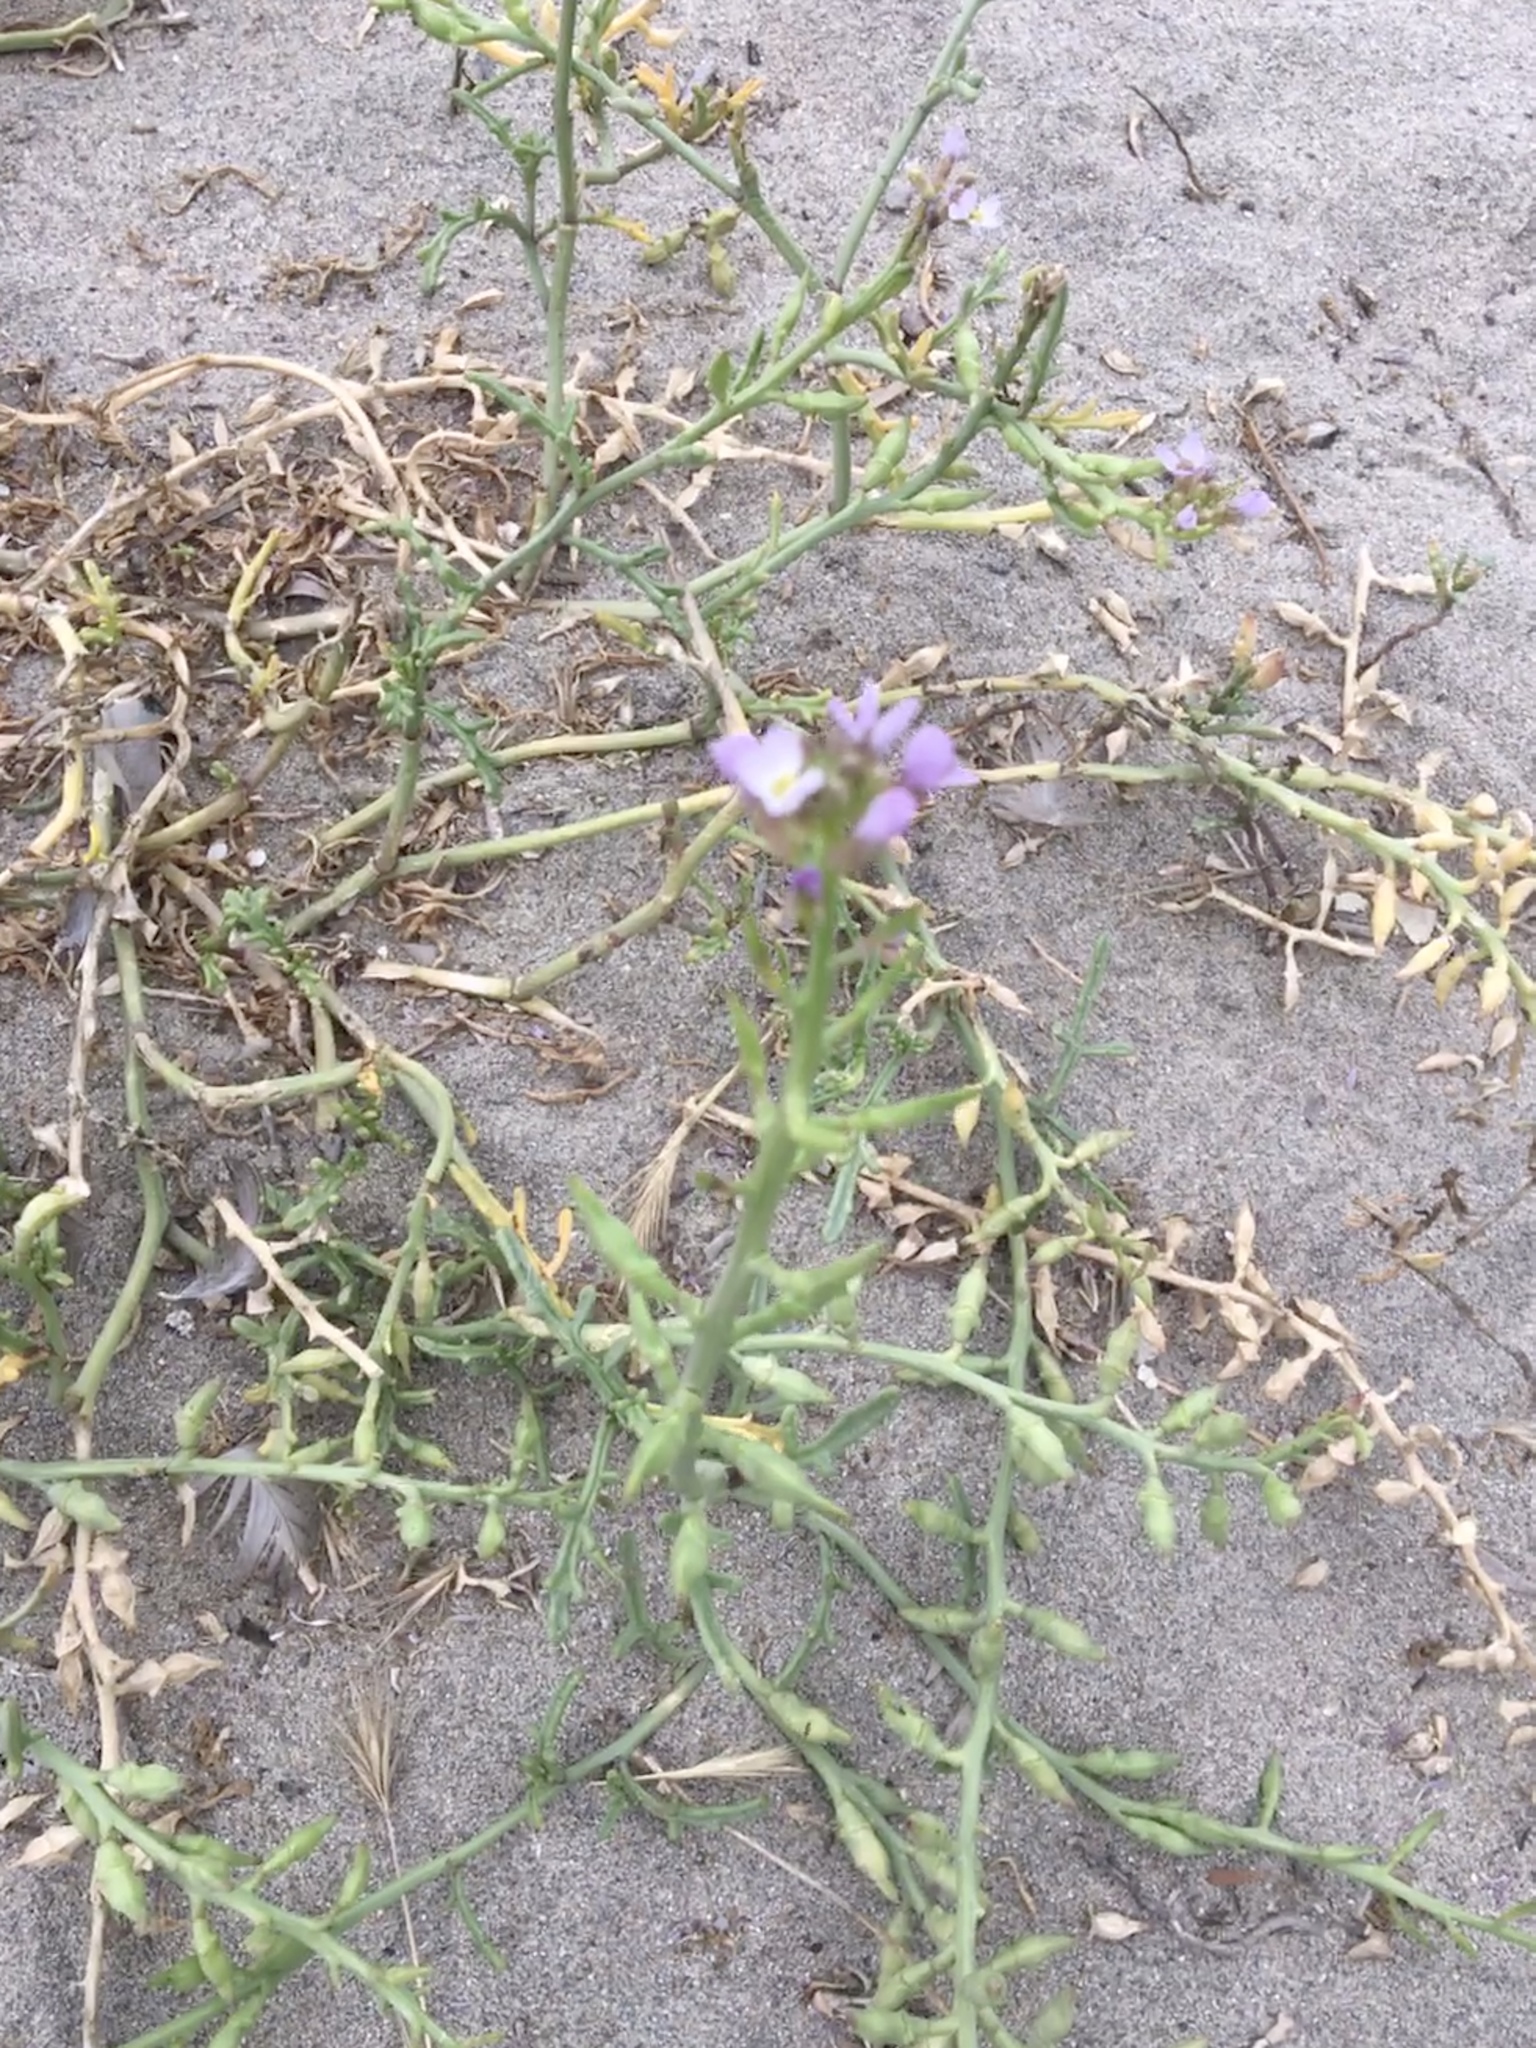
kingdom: Plantae
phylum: Tracheophyta
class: Magnoliopsida
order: Brassicales
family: Brassicaceae
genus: Cakile
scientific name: Cakile maritima
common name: Sea rocket
